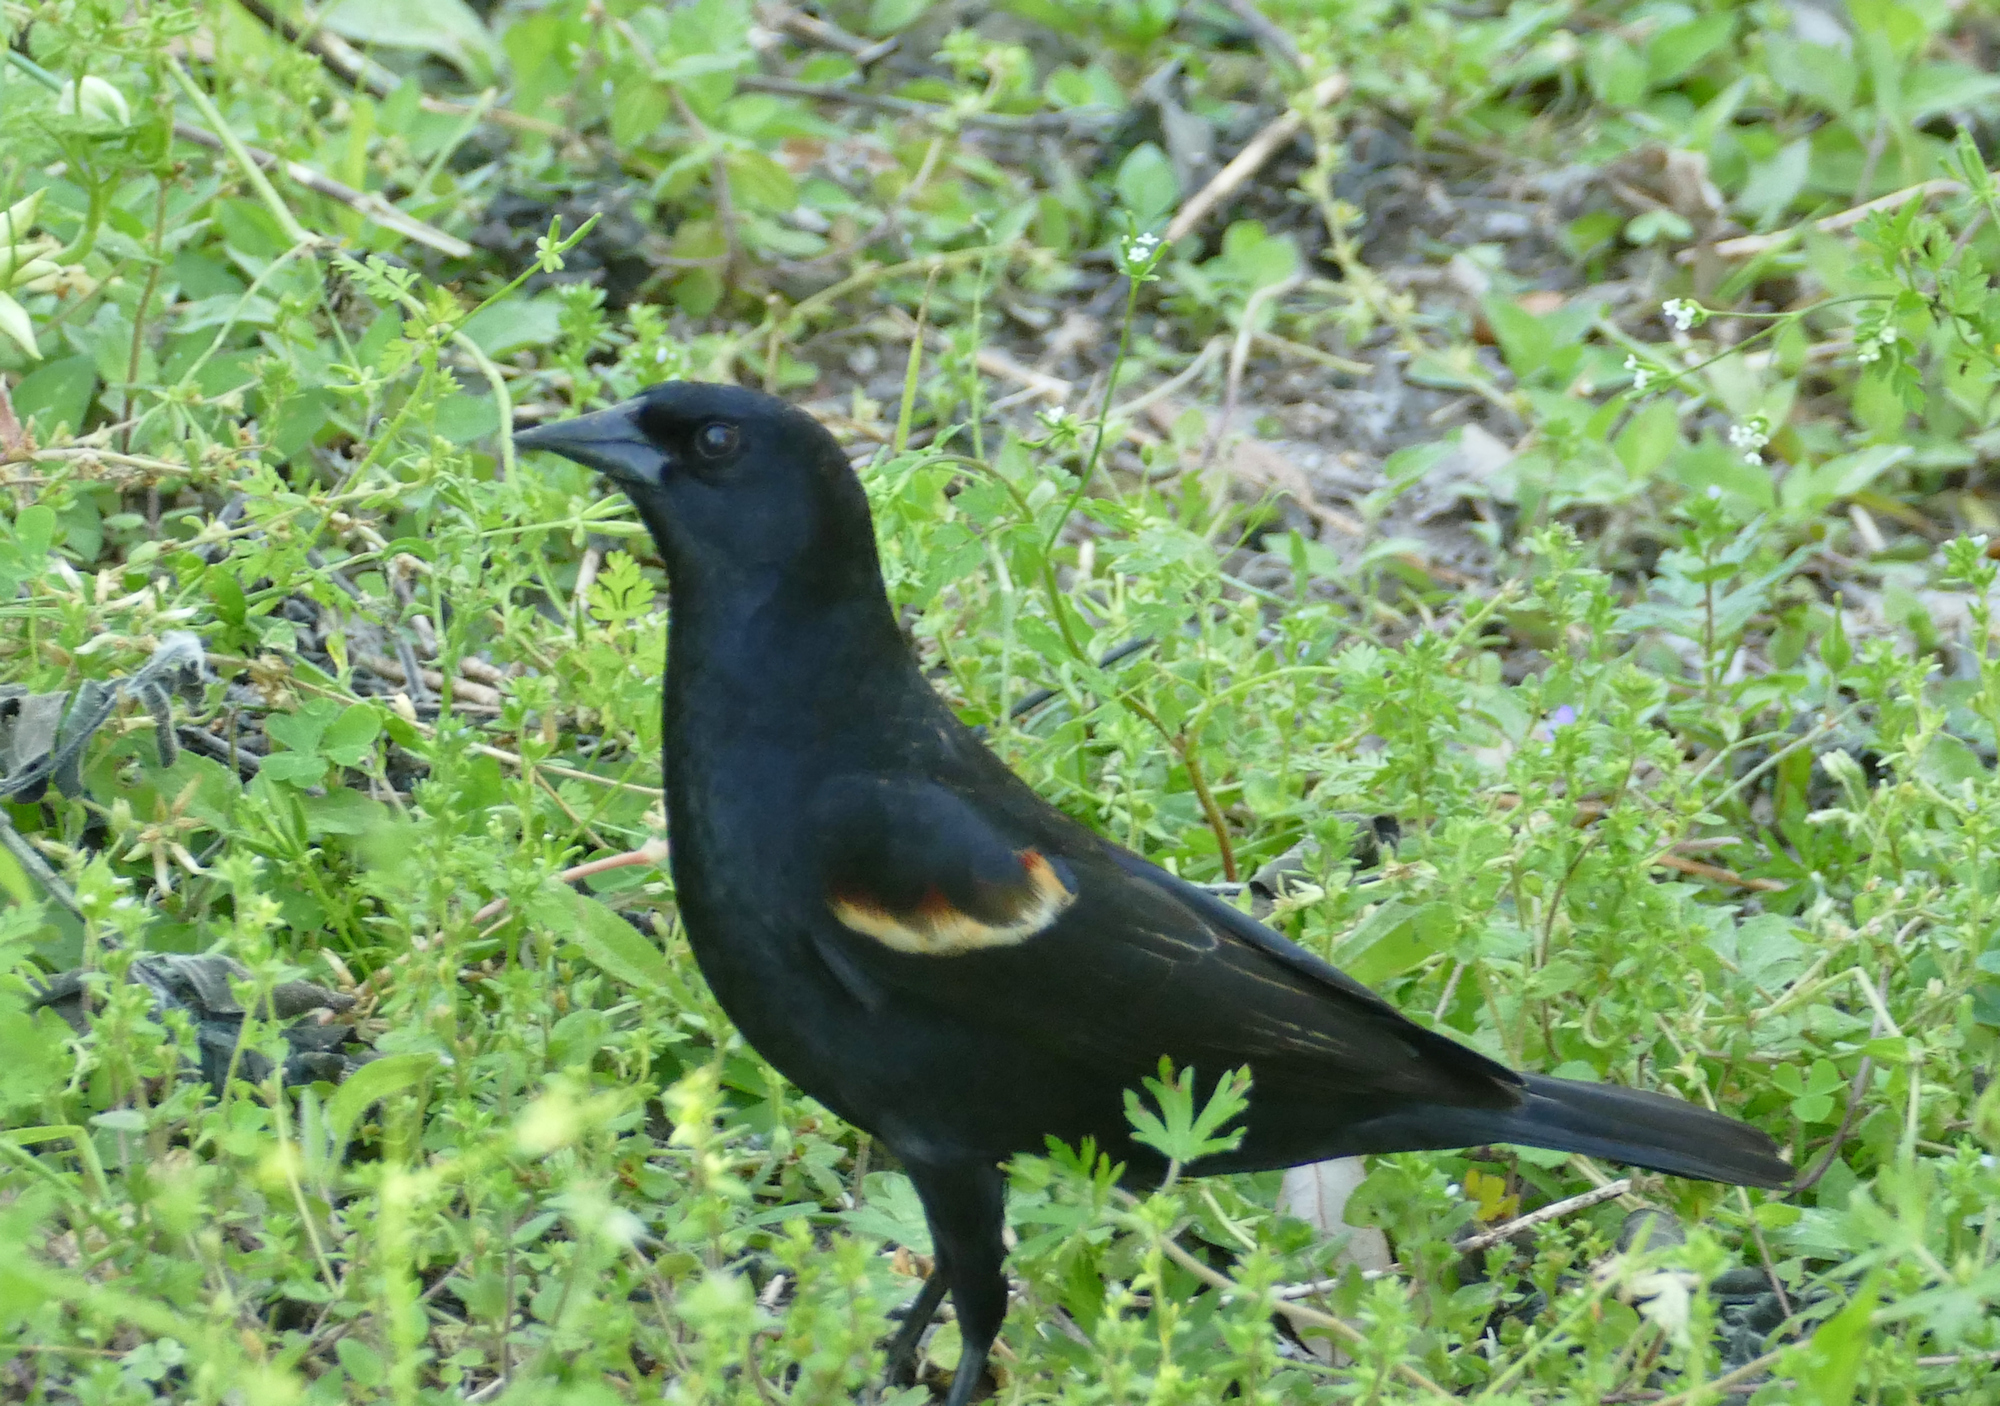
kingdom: Animalia
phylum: Chordata
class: Aves
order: Passeriformes
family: Icteridae
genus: Agelaius
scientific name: Agelaius phoeniceus
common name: Red-winged blackbird
